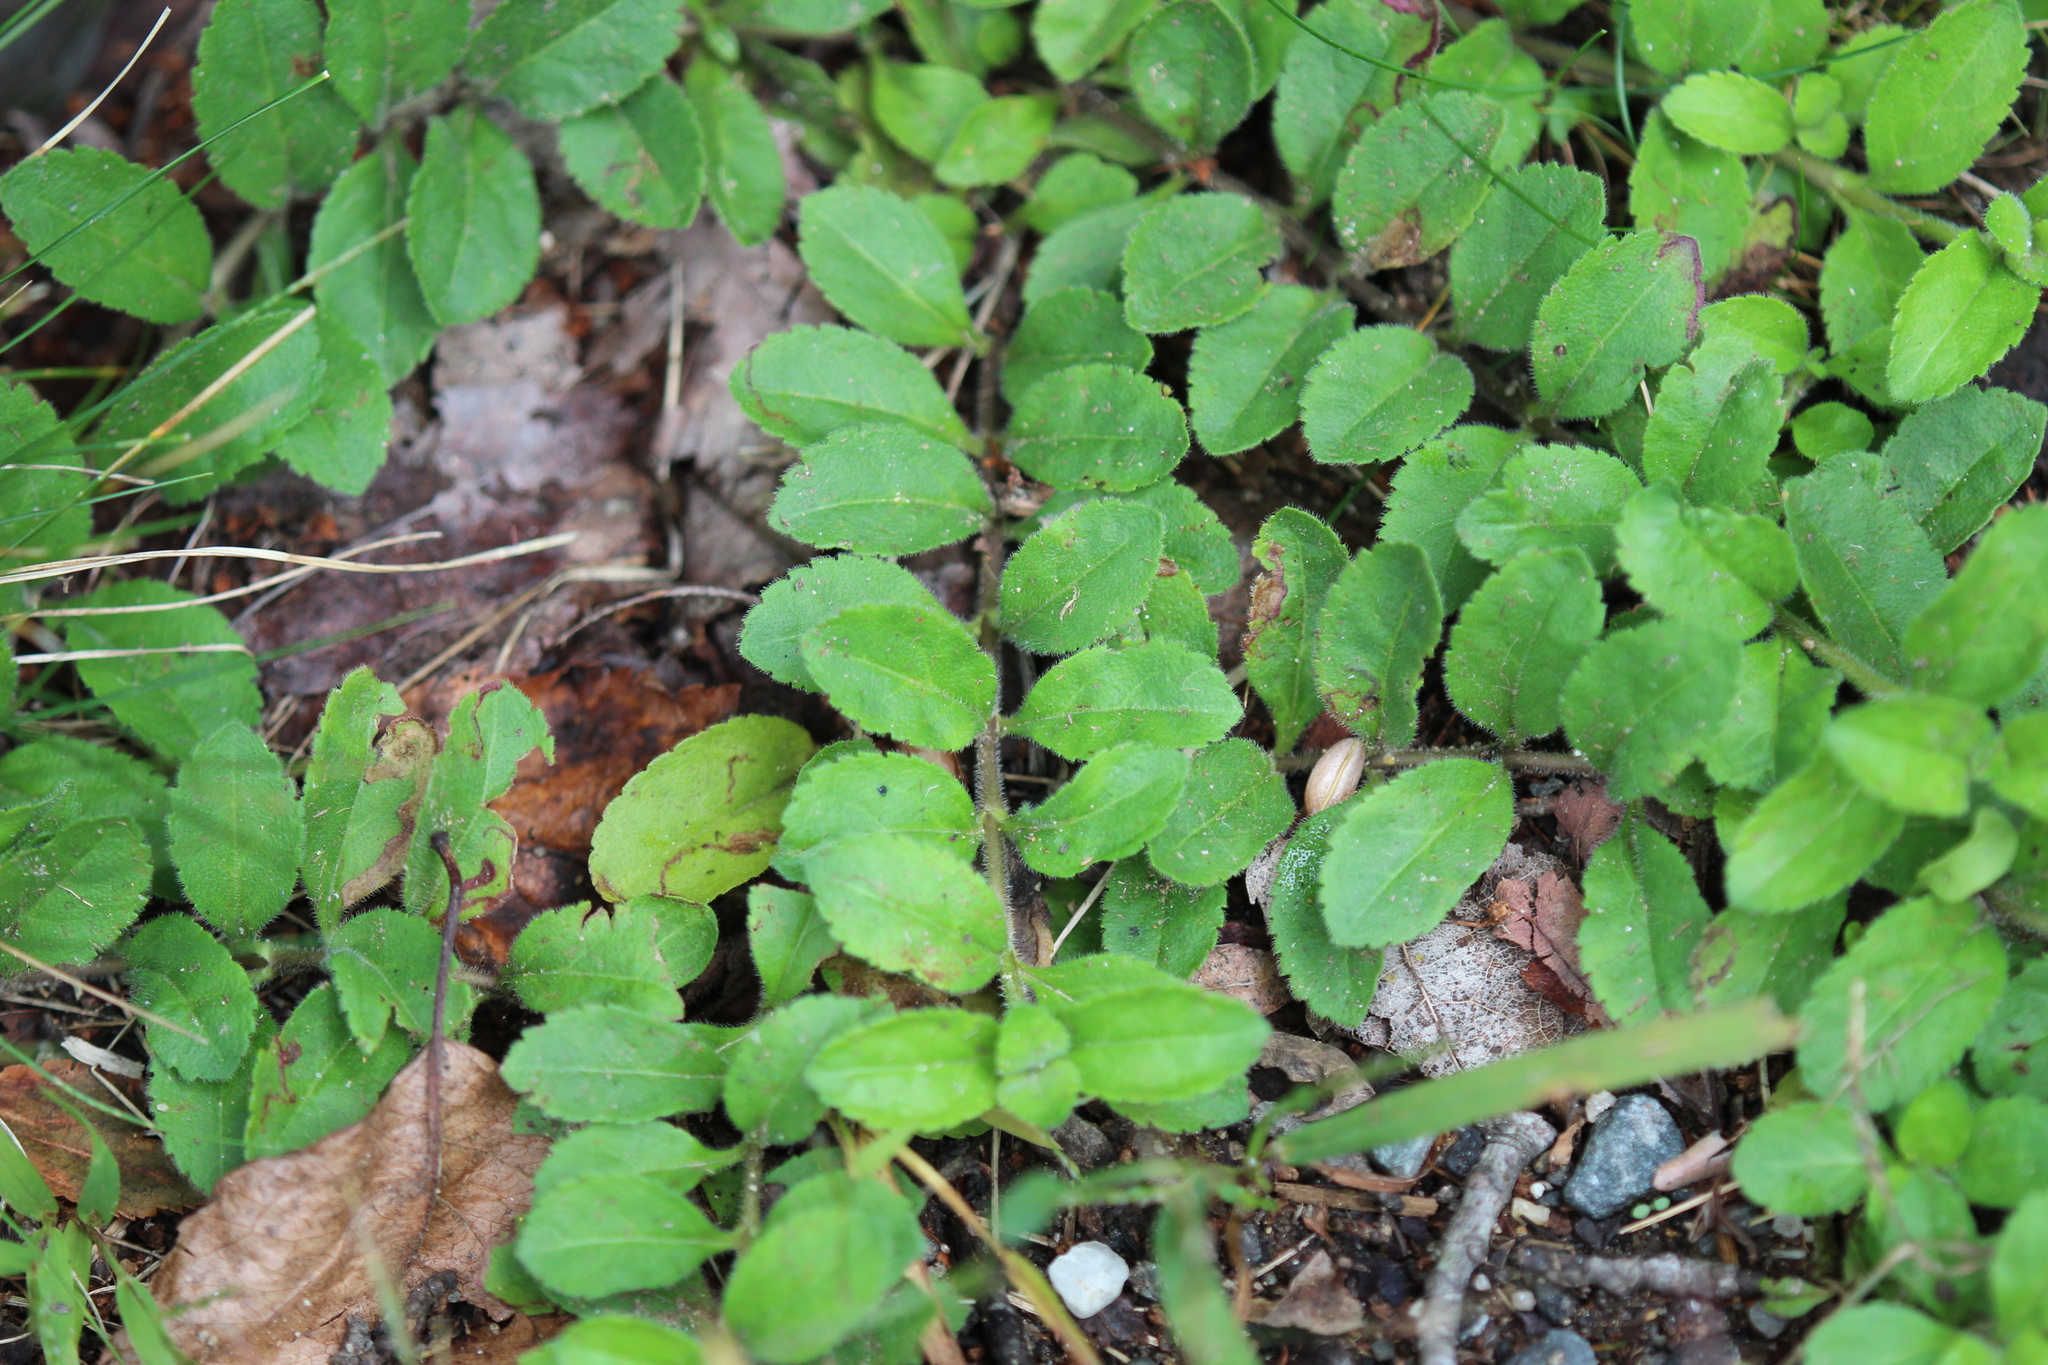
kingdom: Plantae
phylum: Tracheophyta
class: Magnoliopsida
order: Lamiales
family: Plantaginaceae
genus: Veronica
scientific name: Veronica officinalis
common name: Common speedwell
